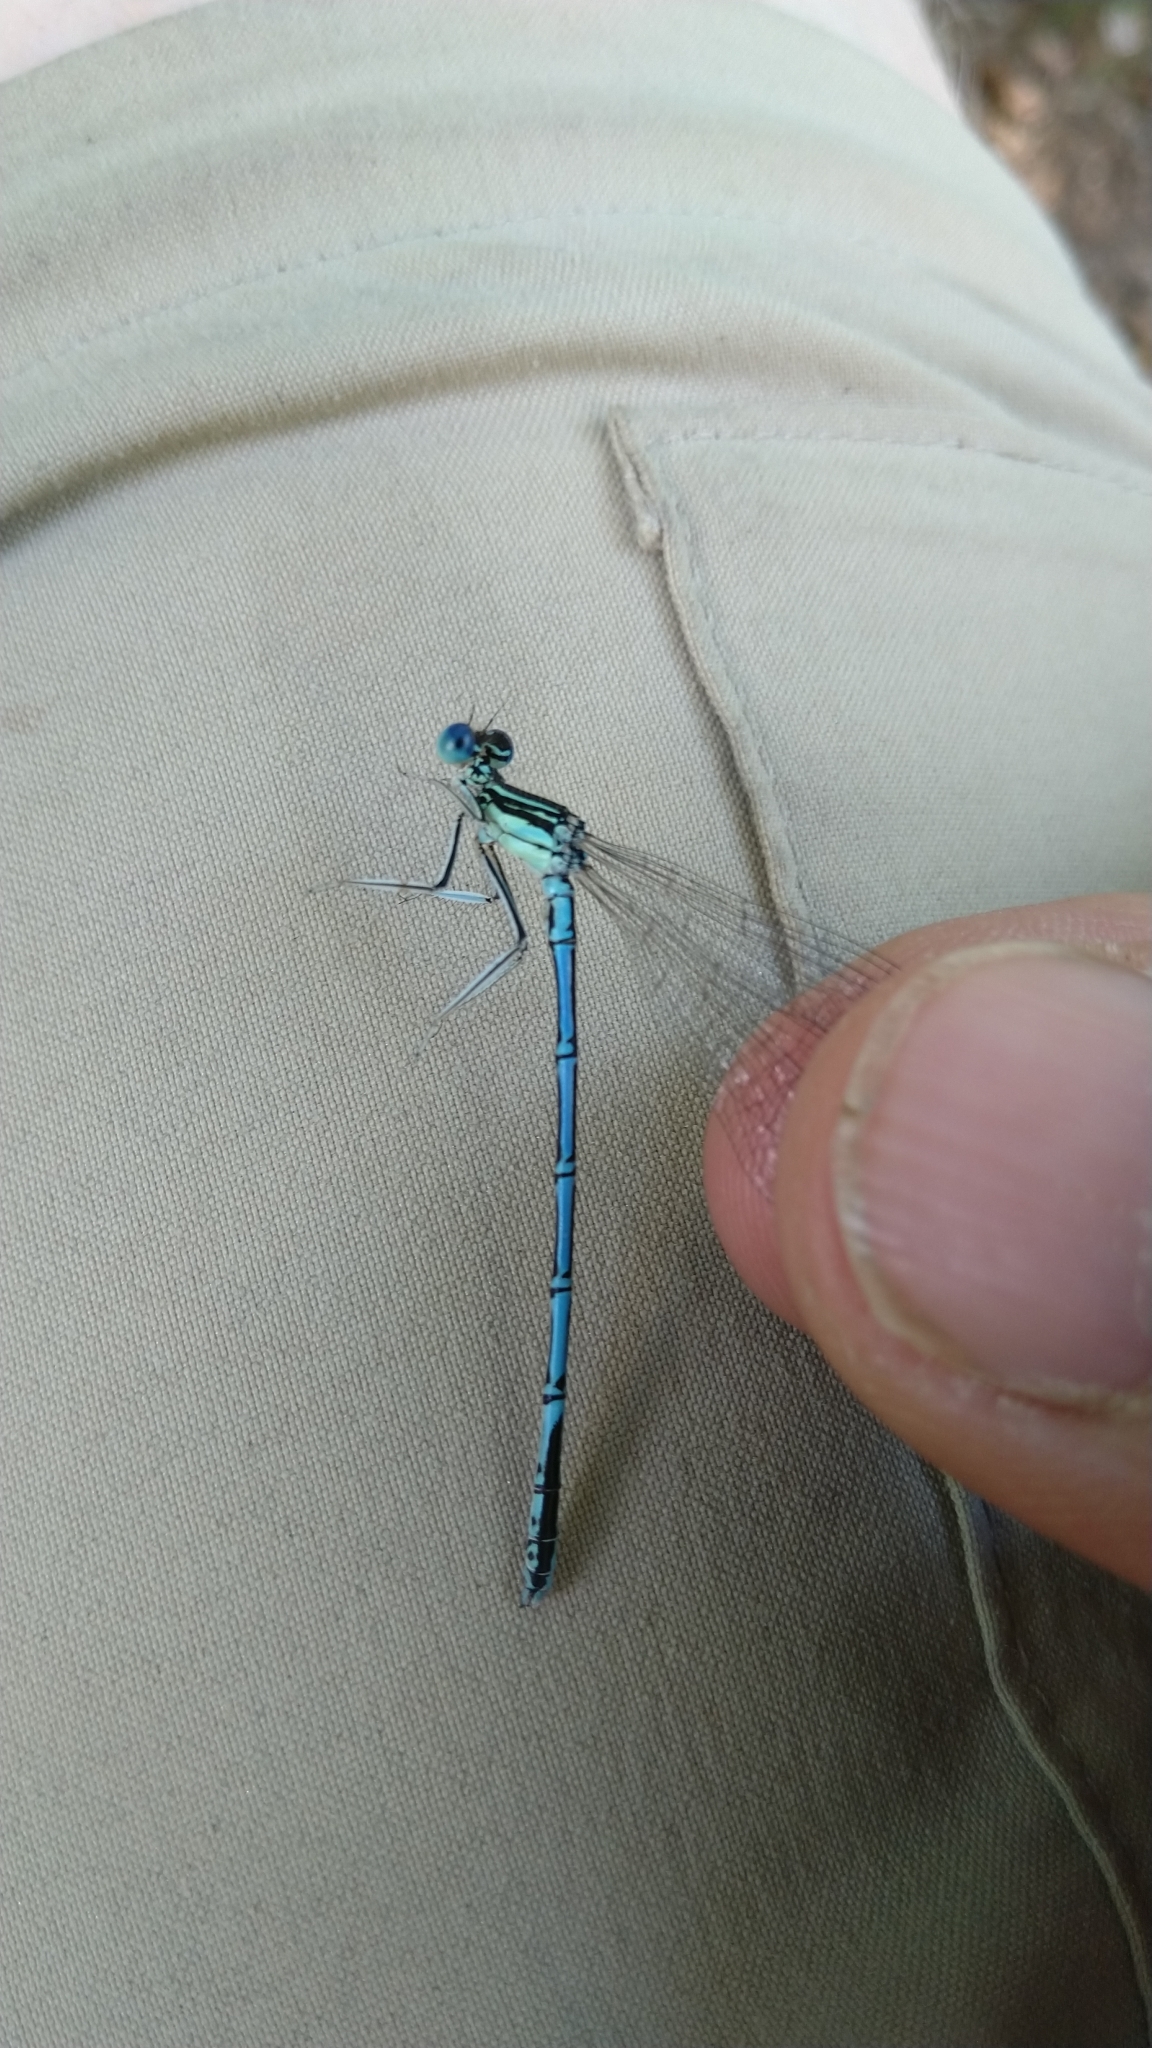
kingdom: Animalia
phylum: Arthropoda
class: Insecta
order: Odonata
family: Platycnemididae
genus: Platycnemis
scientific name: Platycnemis pennipes
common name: White-legged damselfly
